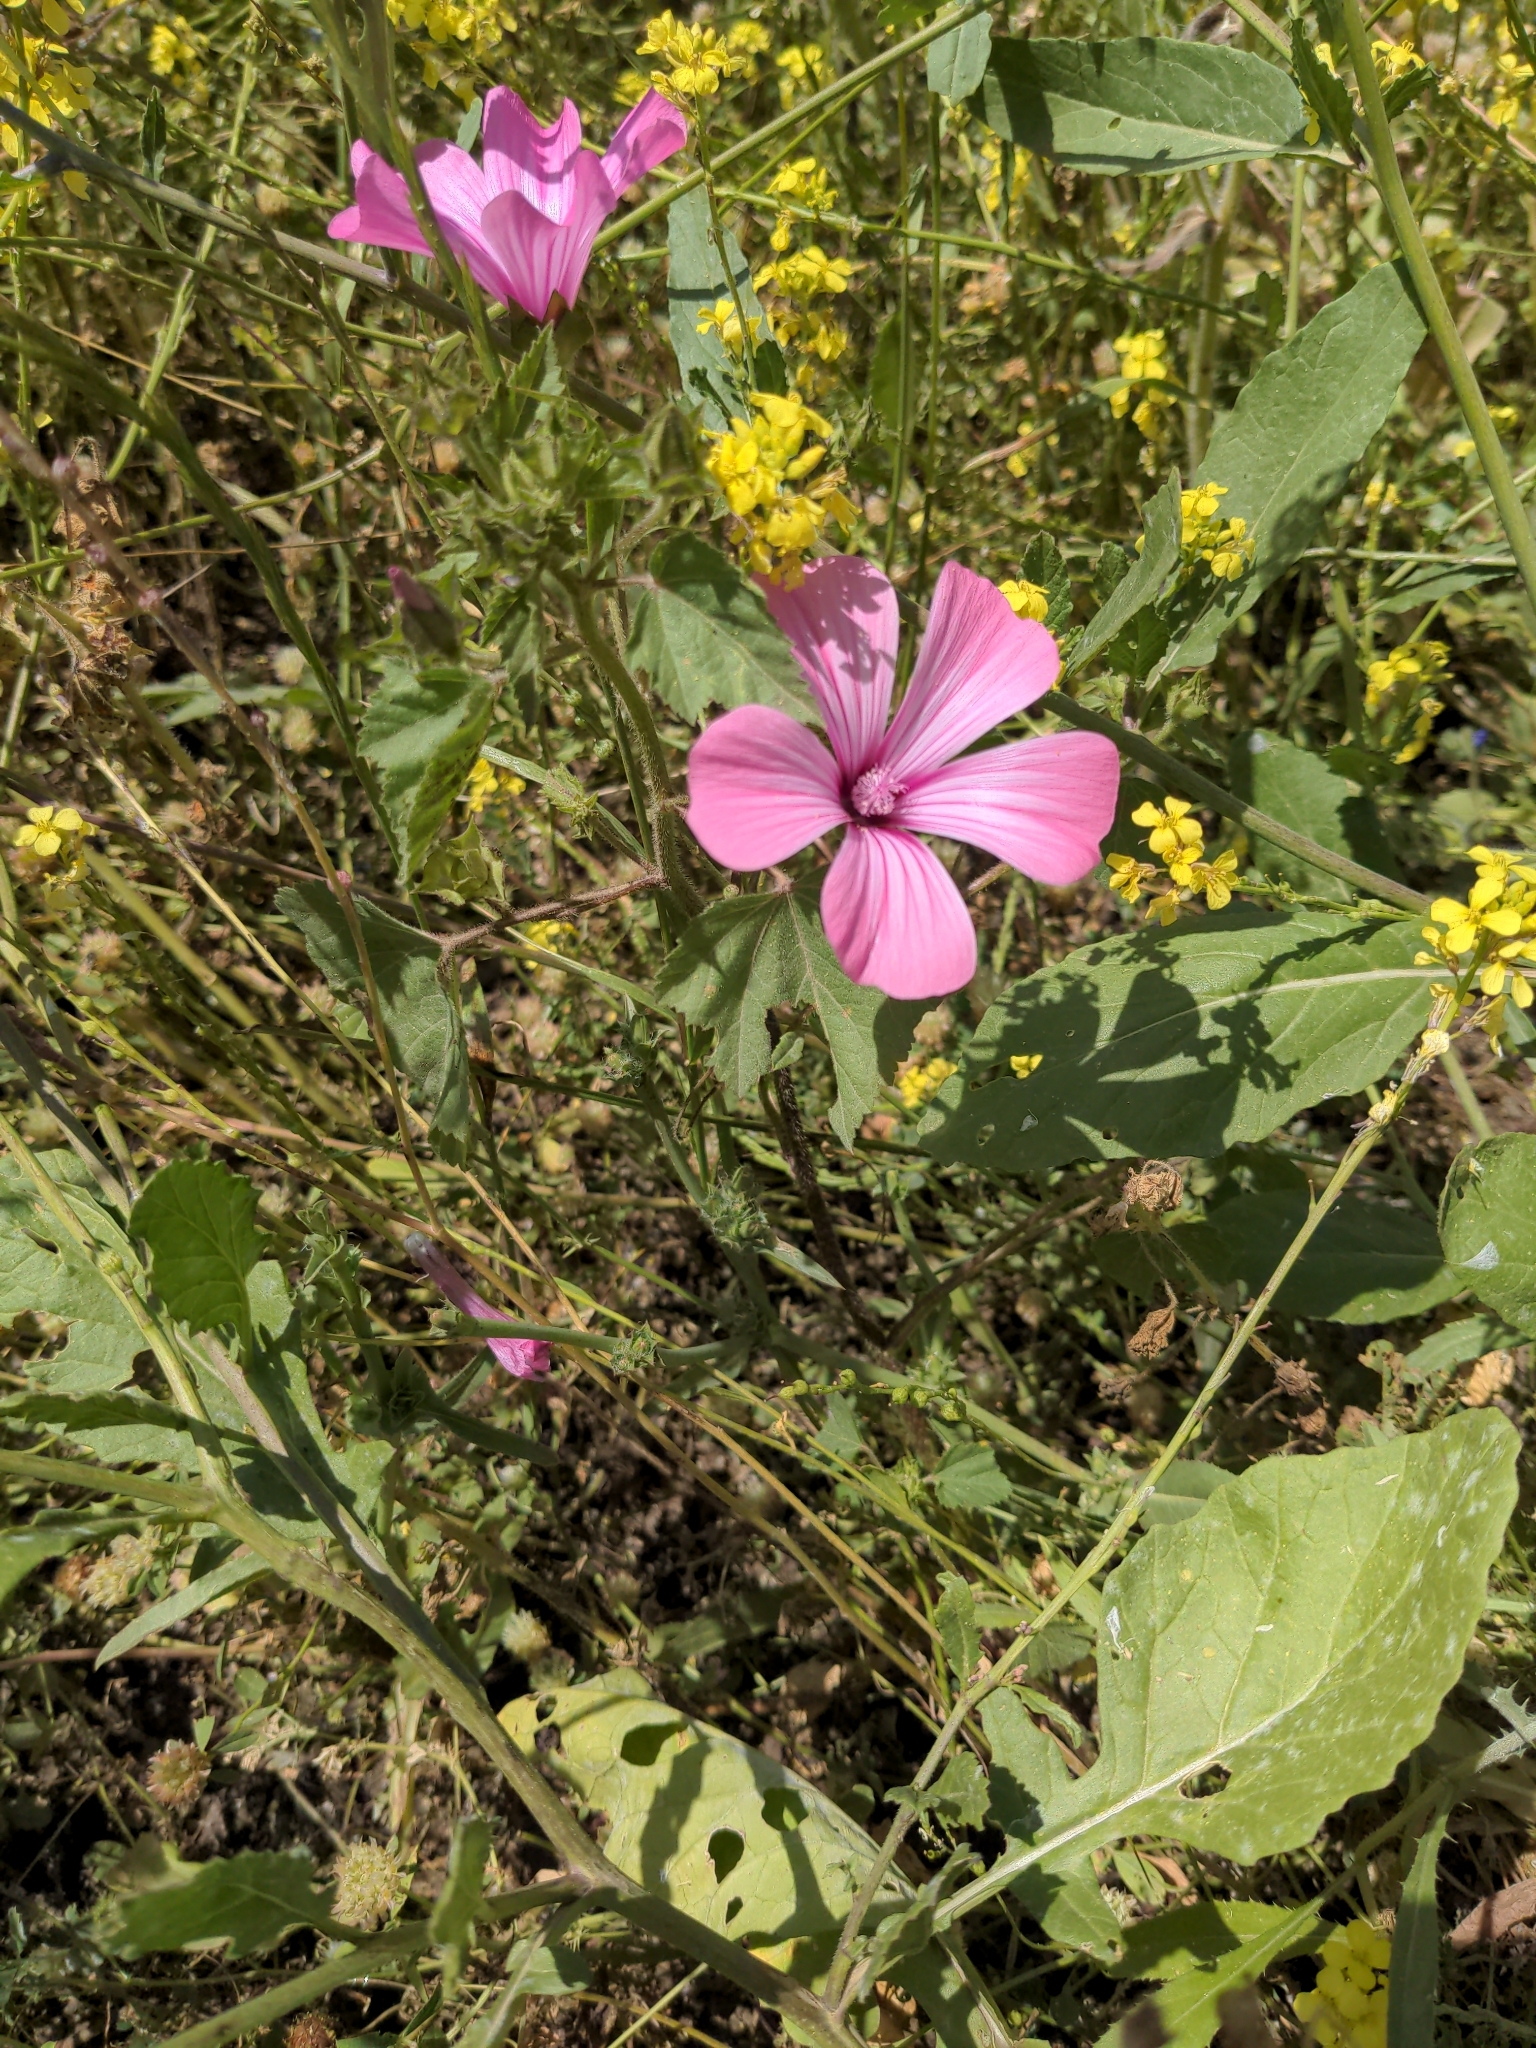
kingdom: Plantae
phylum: Tracheophyta
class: Magnoliopsida
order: Malvales
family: Malvaceae
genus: Malva
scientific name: Malva trimestris
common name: Royal mallow
